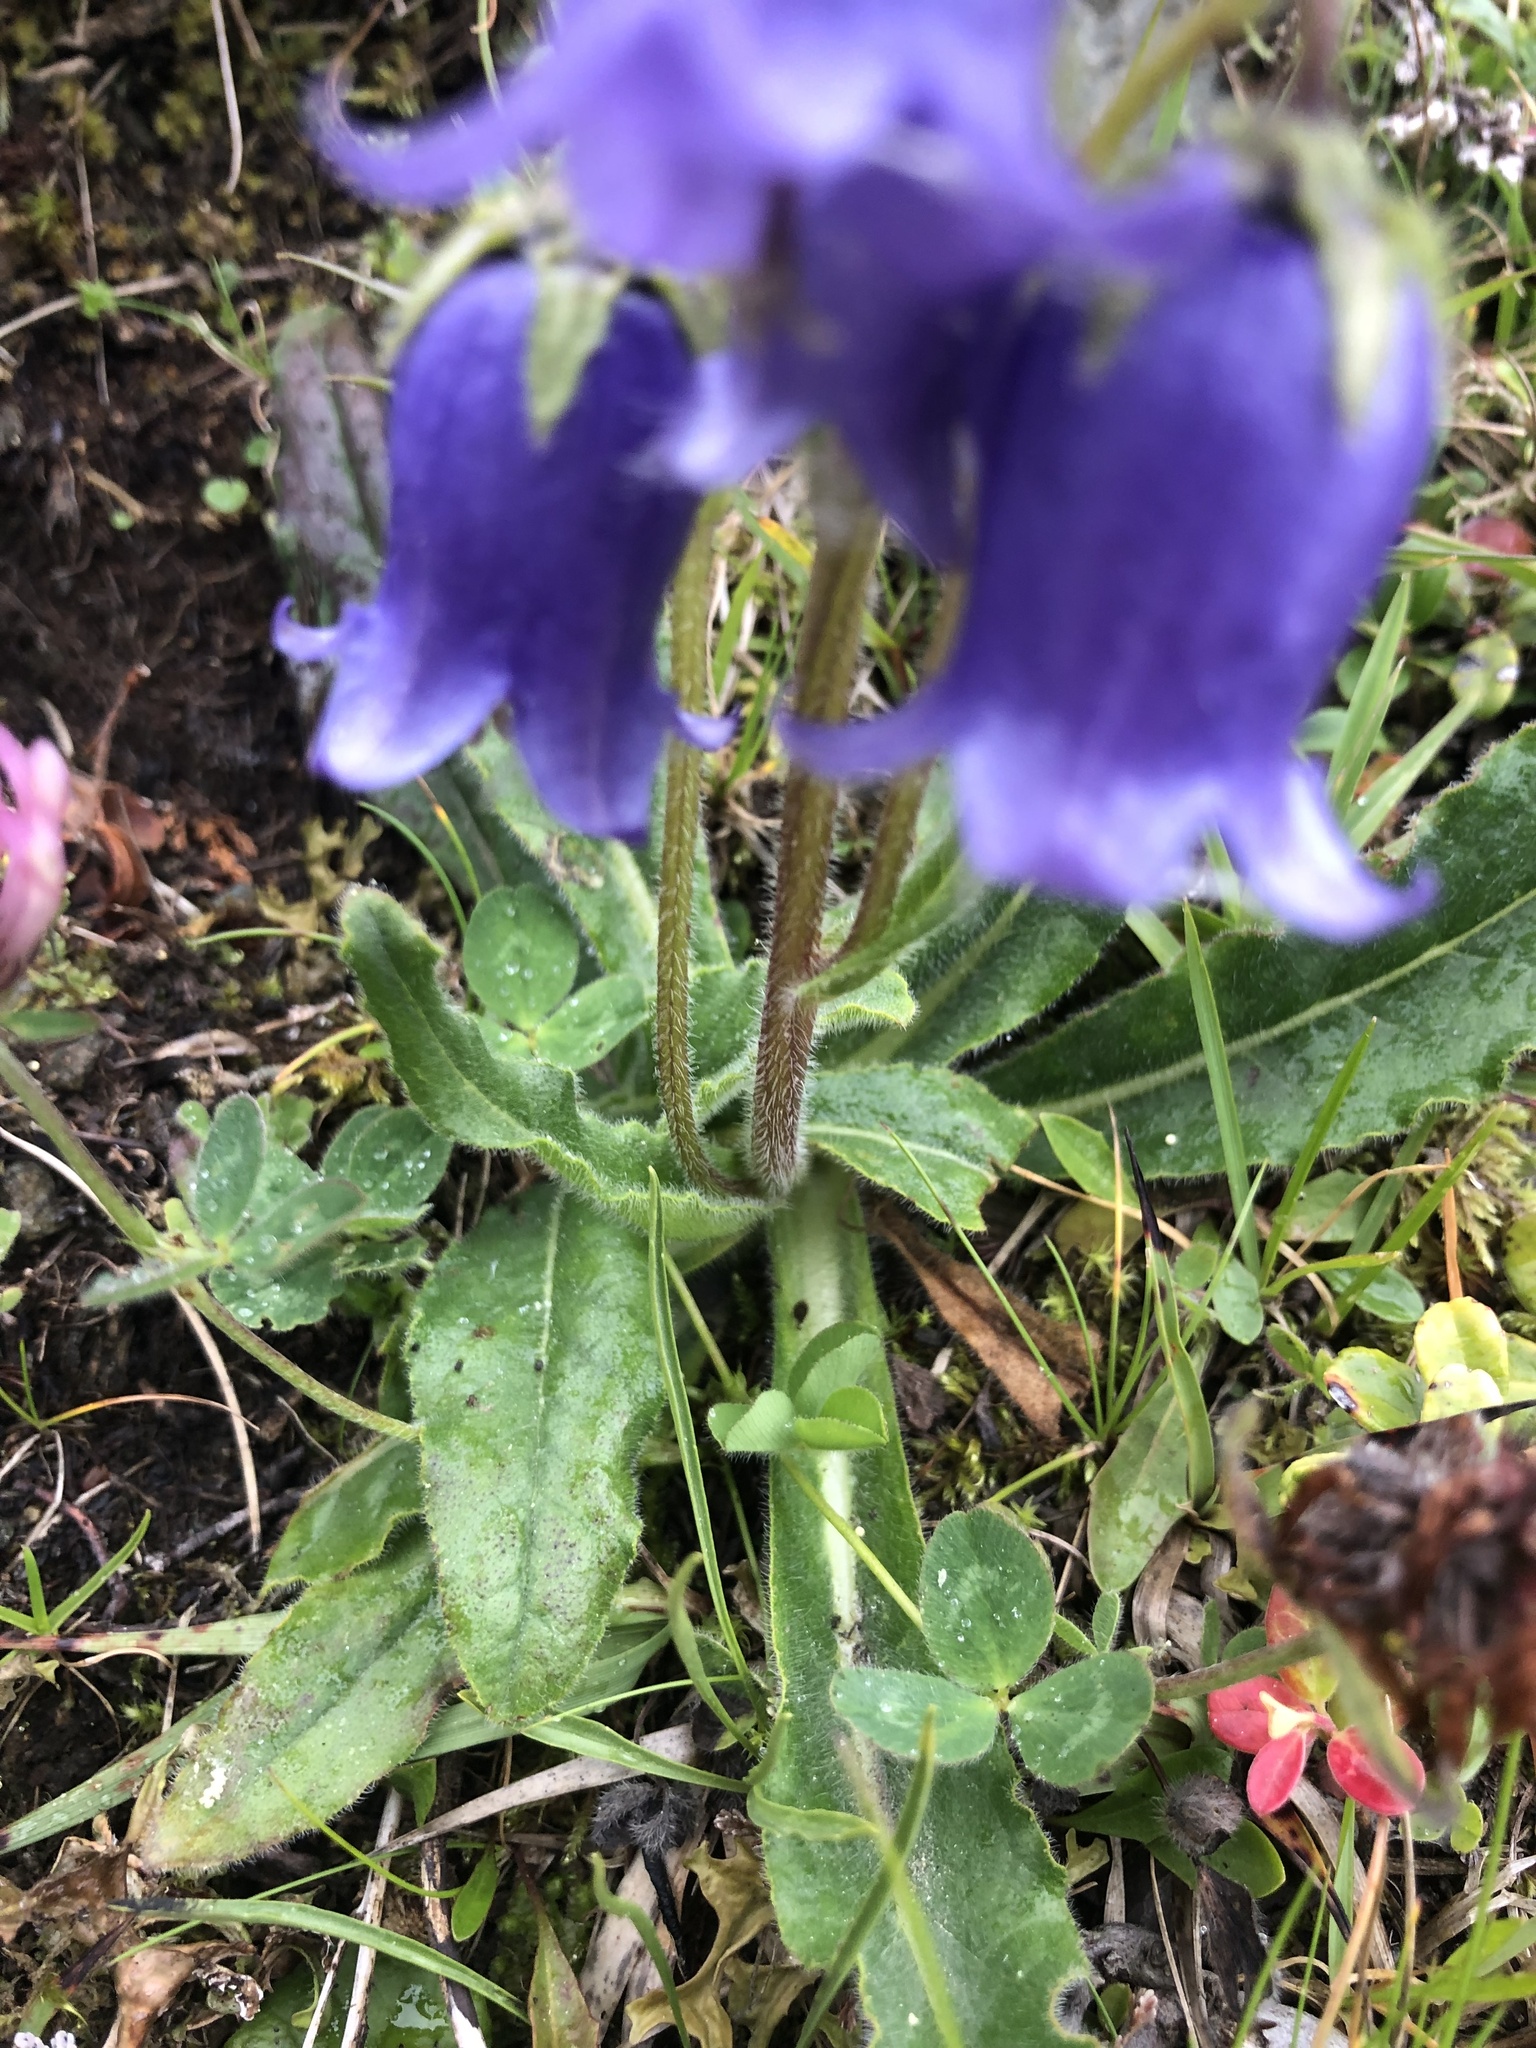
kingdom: Plantae
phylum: Tracheophyta
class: Magnoliopsida
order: Asterales
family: Campanulaceae
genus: Campanula
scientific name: Campanula barbata
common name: Bearded bellflower
